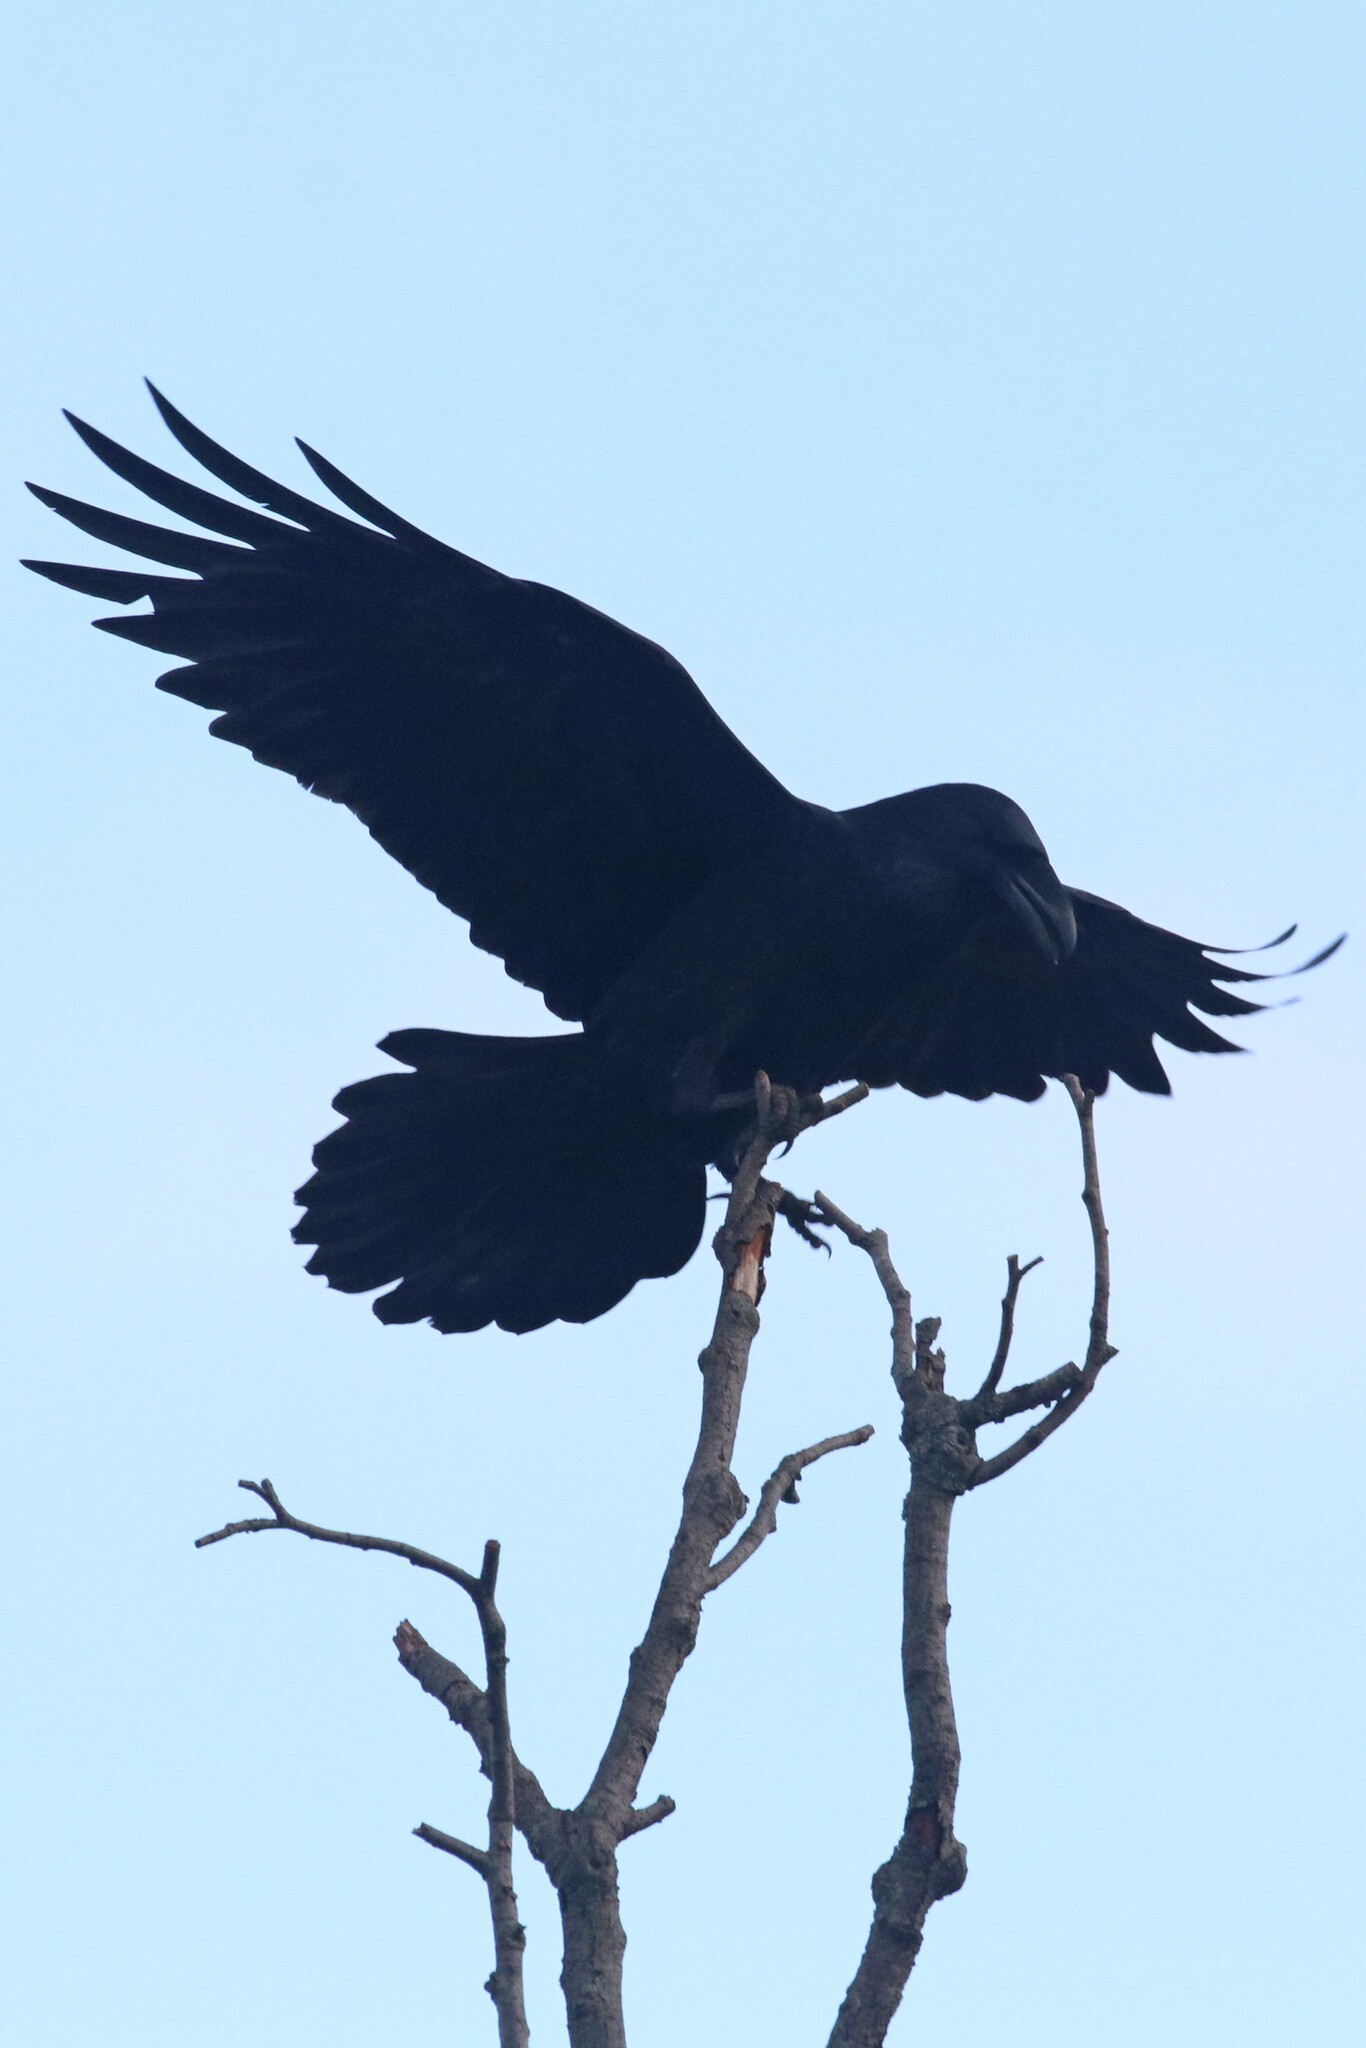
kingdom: Animalia
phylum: Chordata
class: Aves
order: Passeriformes
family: Corvidae
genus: Corvus
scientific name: Corvus corax
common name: Common raven
